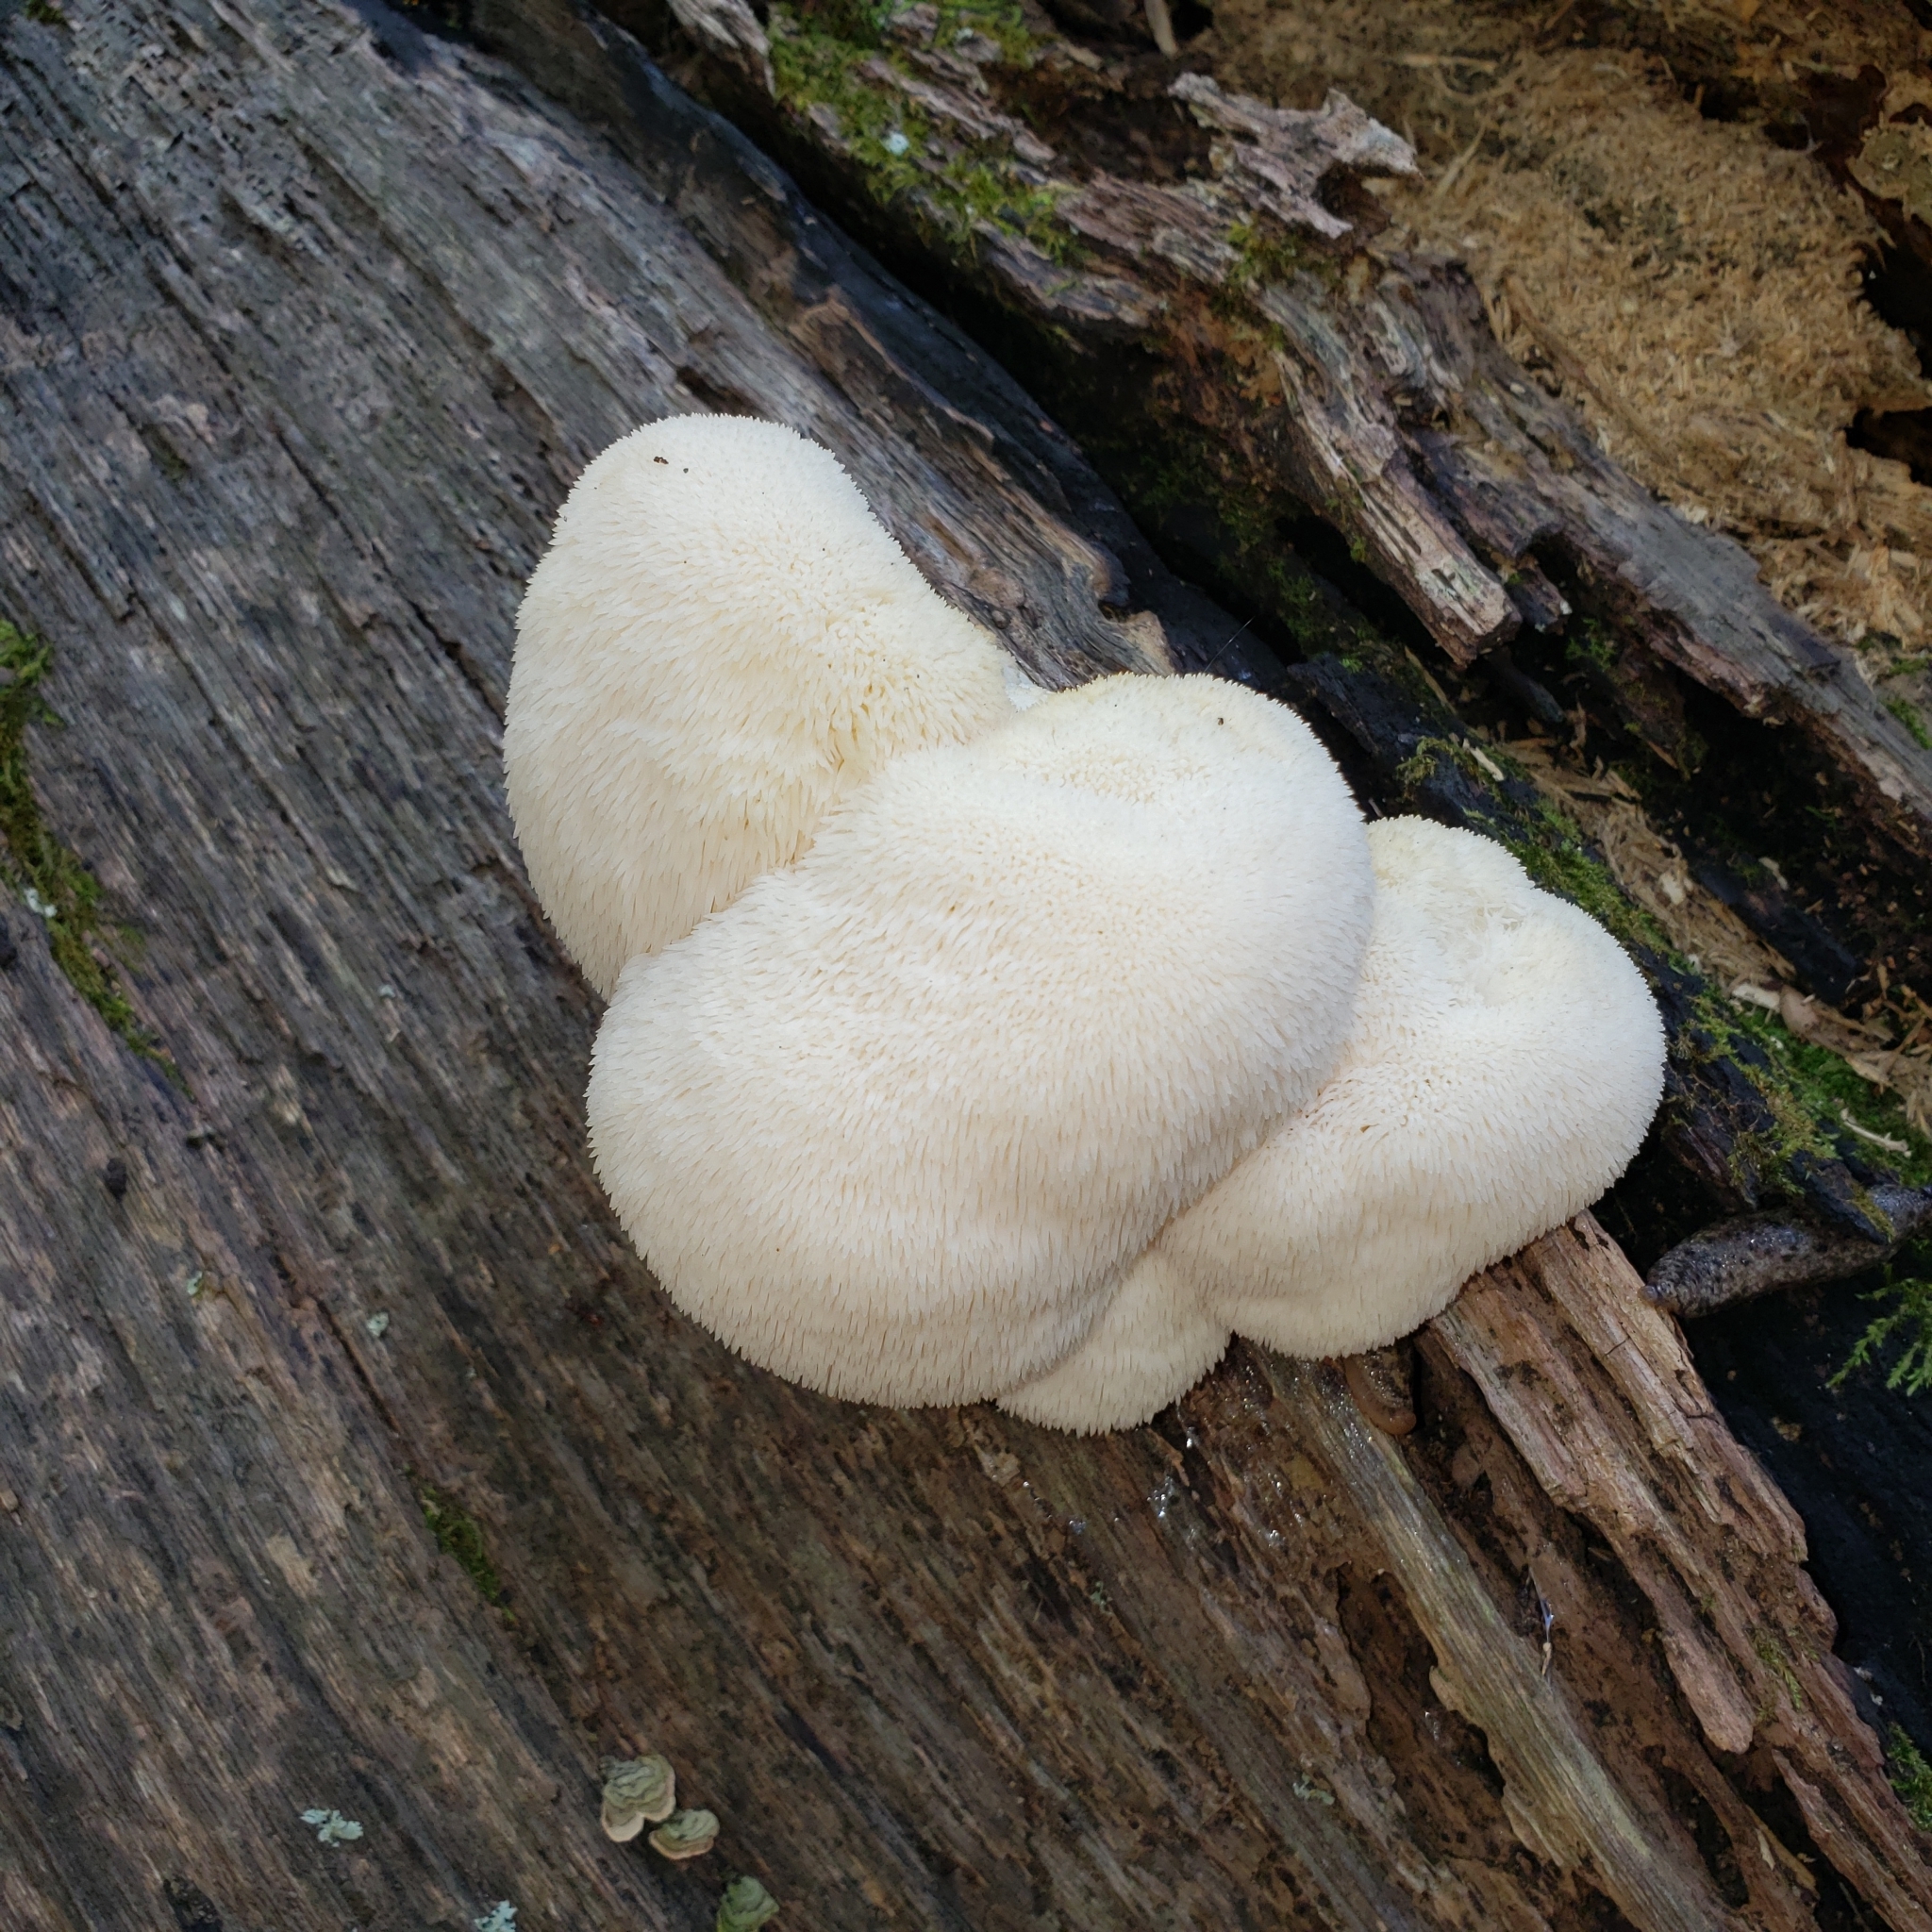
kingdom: Fungi
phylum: Basidiomycota
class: Agaricomycetes
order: Russulales
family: Hericiaceae
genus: Hericium
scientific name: Hericium erinaceus
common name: Bearded tooth
